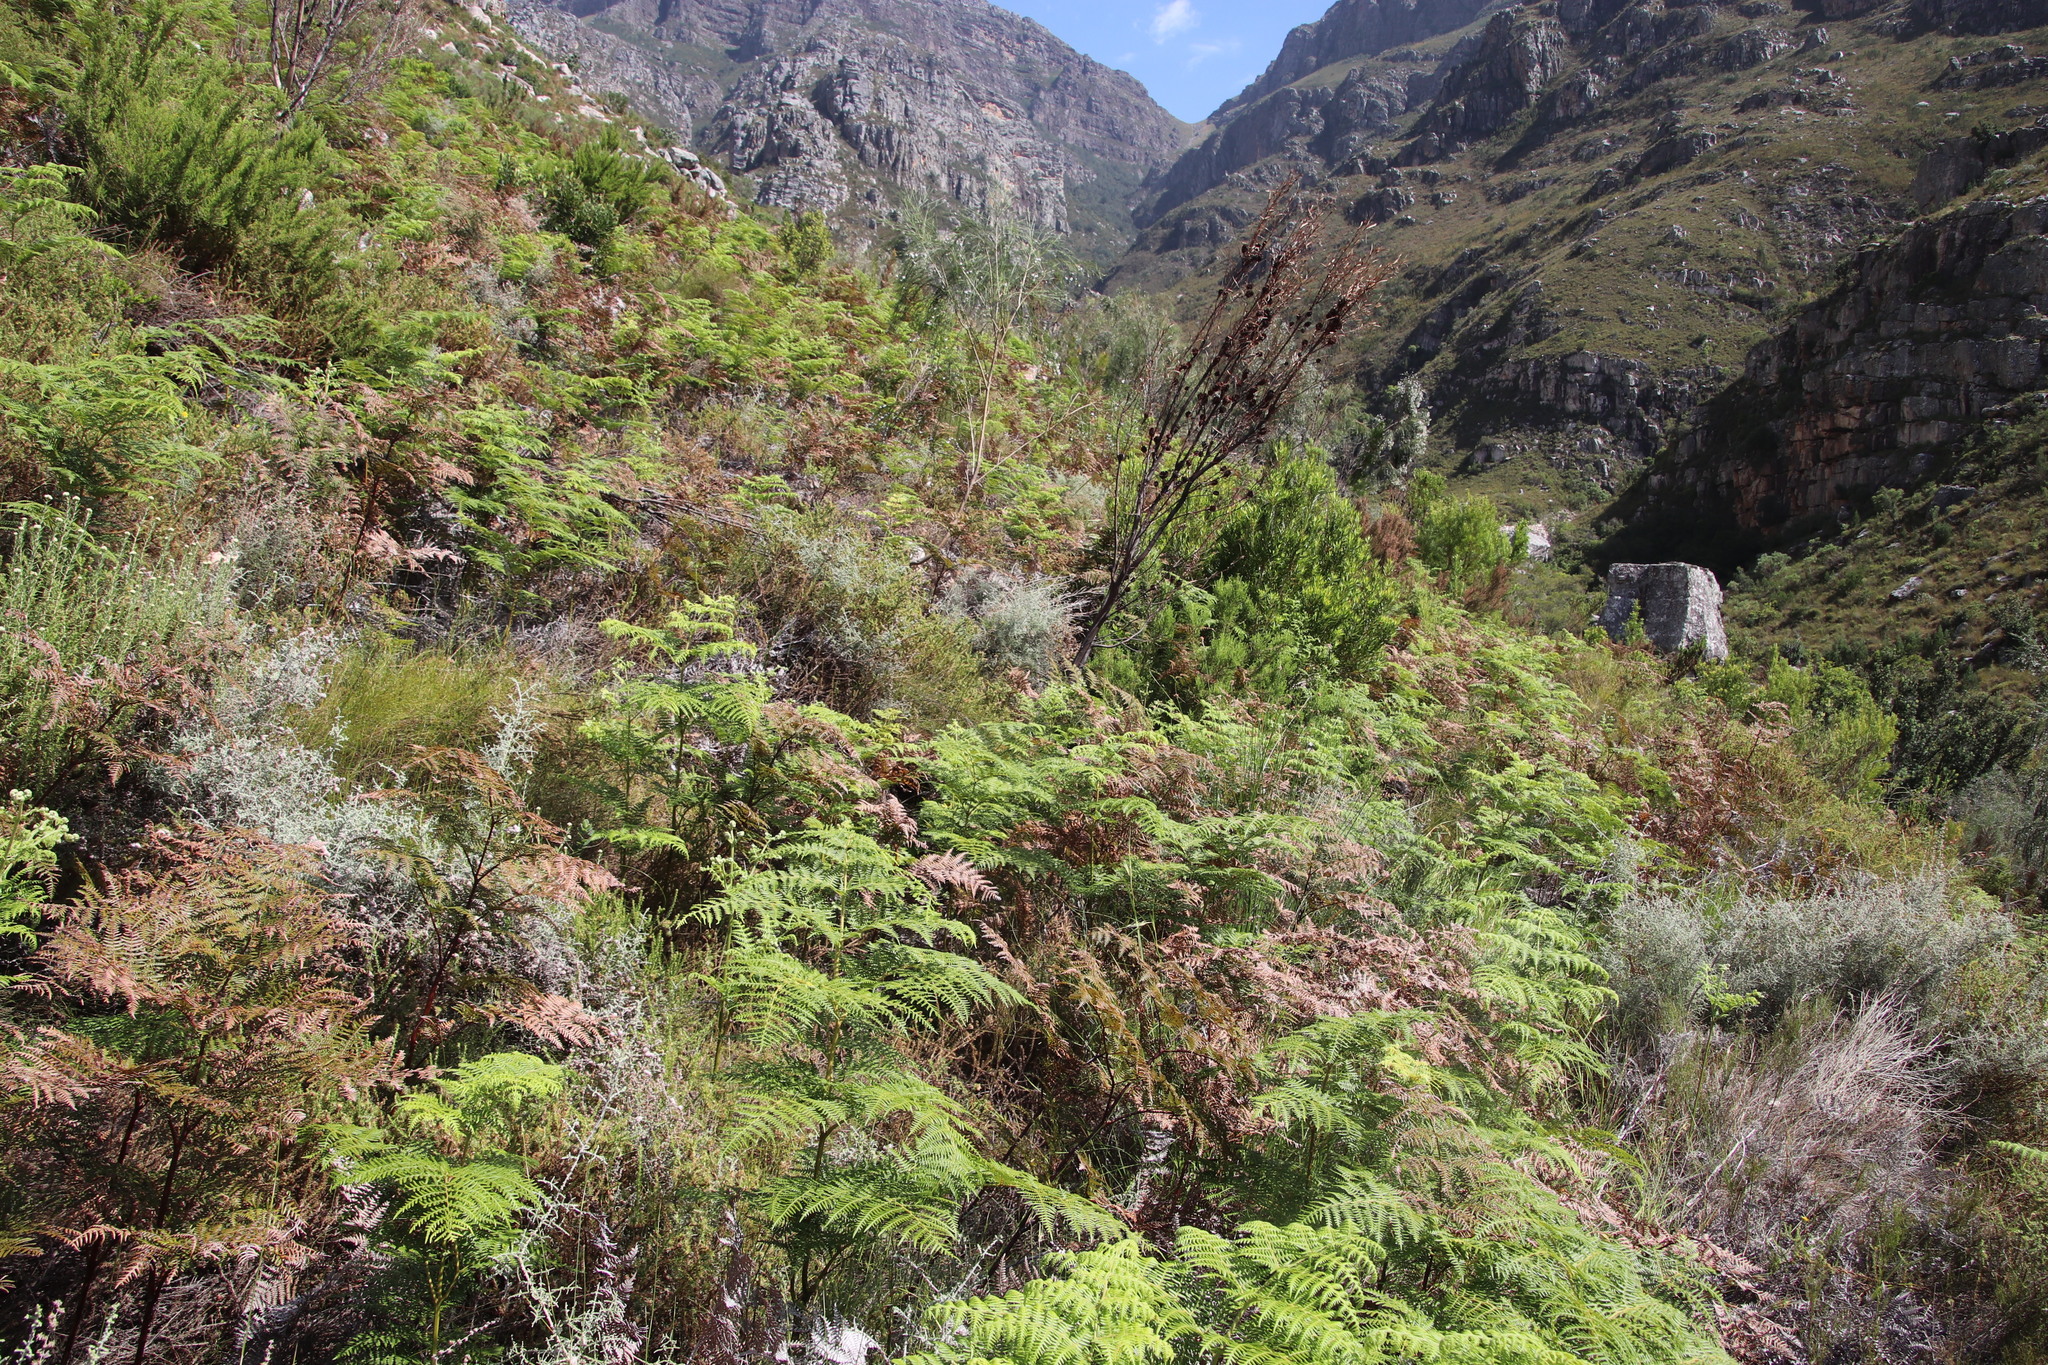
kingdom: Plantae
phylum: Tracheophyta
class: Polypodiopsida
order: Polypodiales
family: Dennstaedtiaceae
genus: Pteridium
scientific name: Pteridium aquilinum
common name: Bracken
